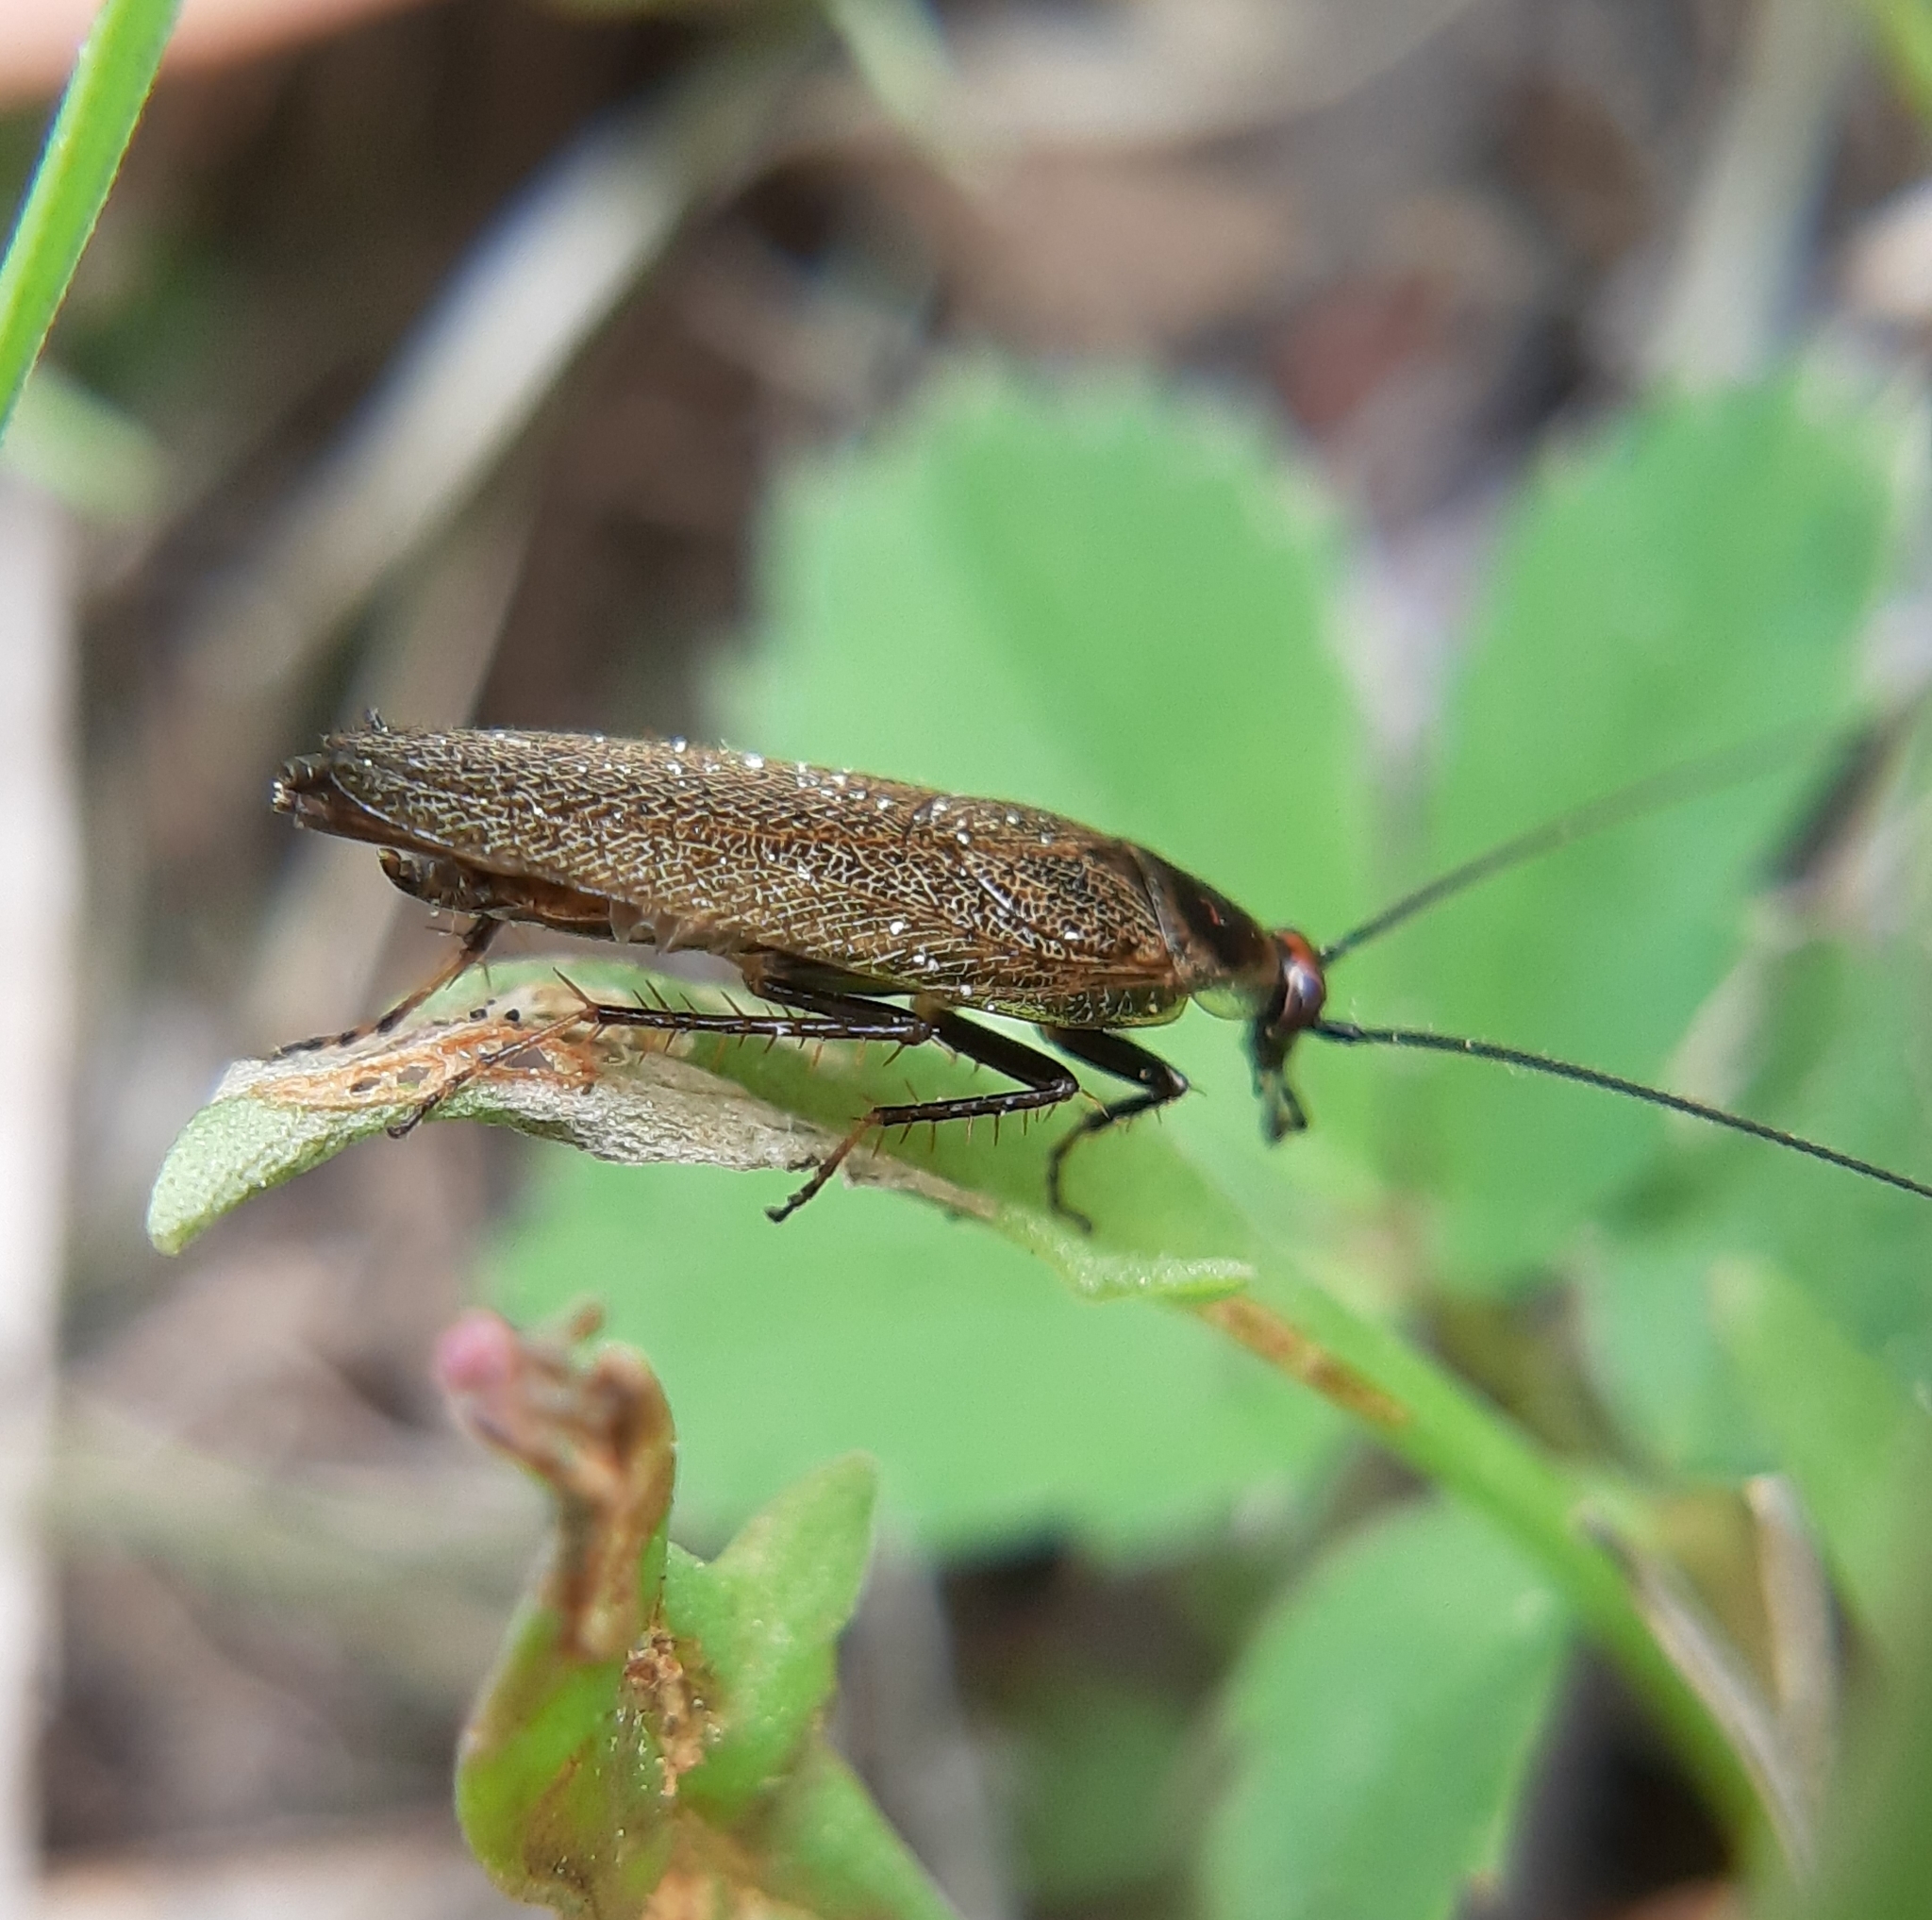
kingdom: Animalia
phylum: Arthropoda
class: Insecta
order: Blattodea
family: Ectobiidae
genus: Ectobius
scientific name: Ectobius lapponicus
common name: Dusky cockroach
